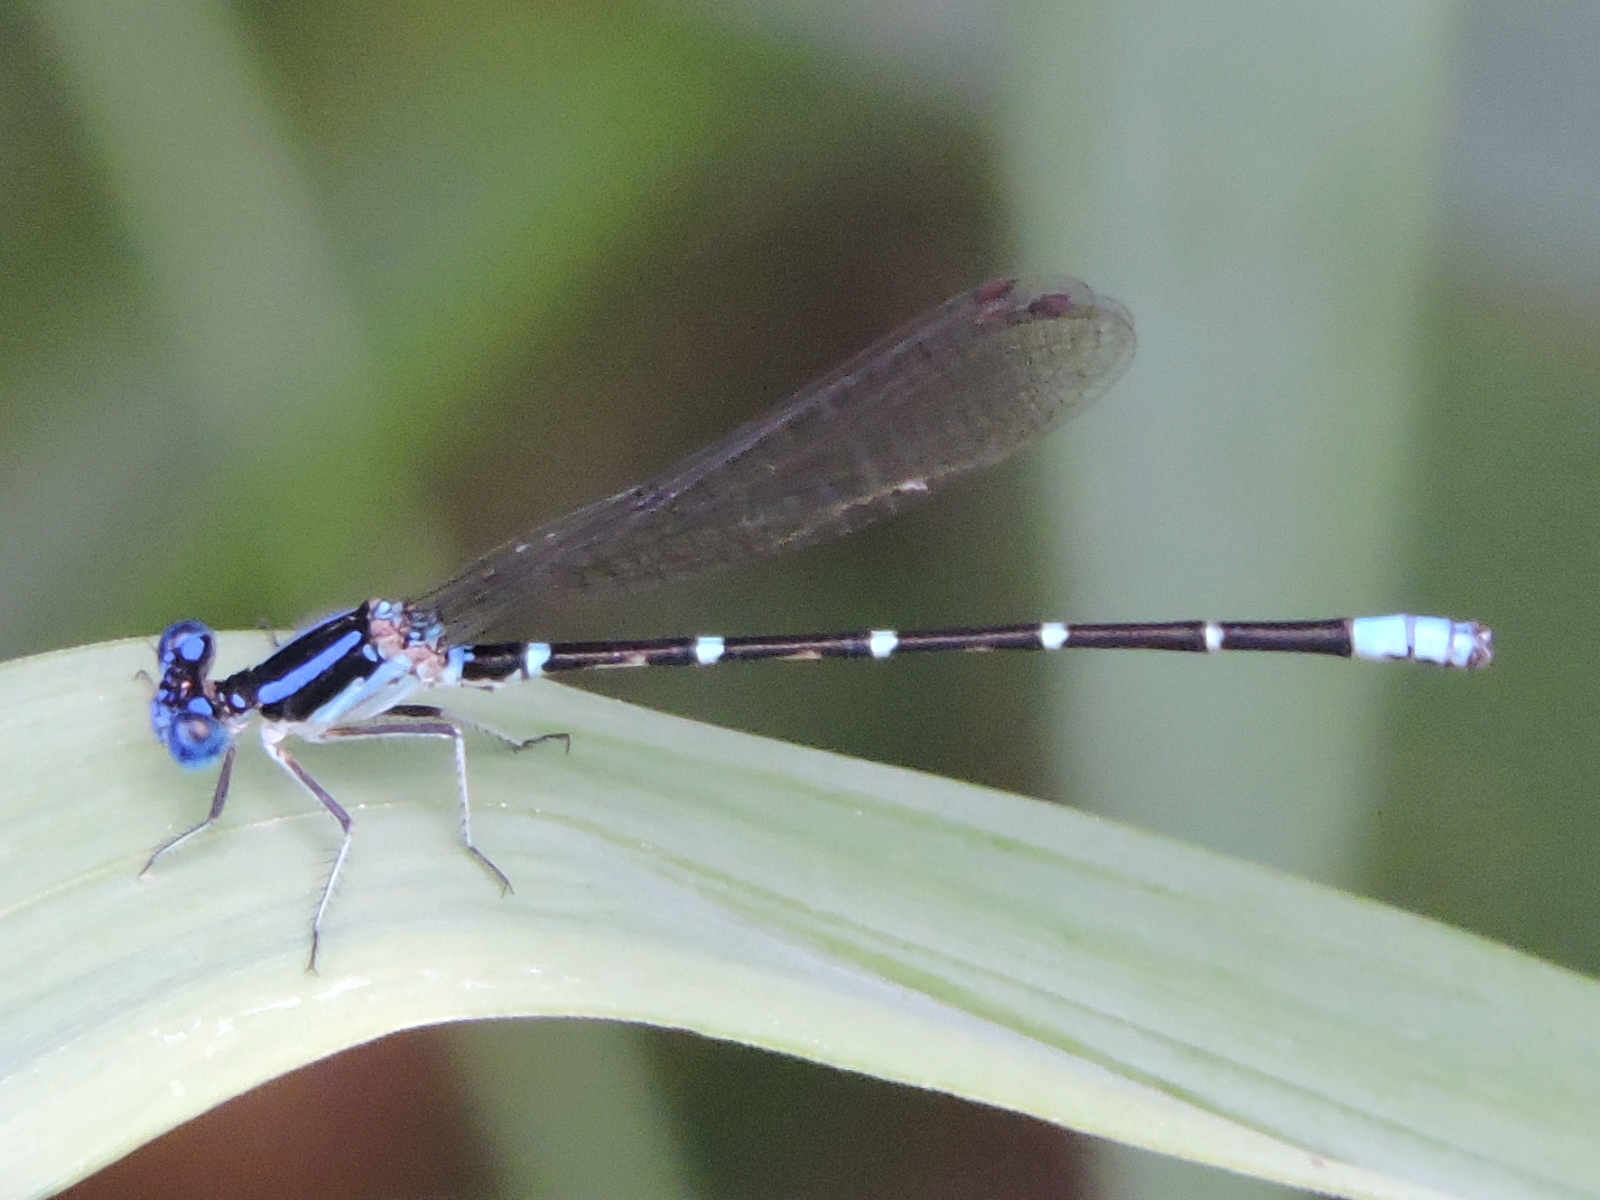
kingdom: Animalia
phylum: Arthropoda
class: Insecta
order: Odonata
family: Coenagrionidae
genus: Argia
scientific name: Argia sedula
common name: Blue-ringed dancer
